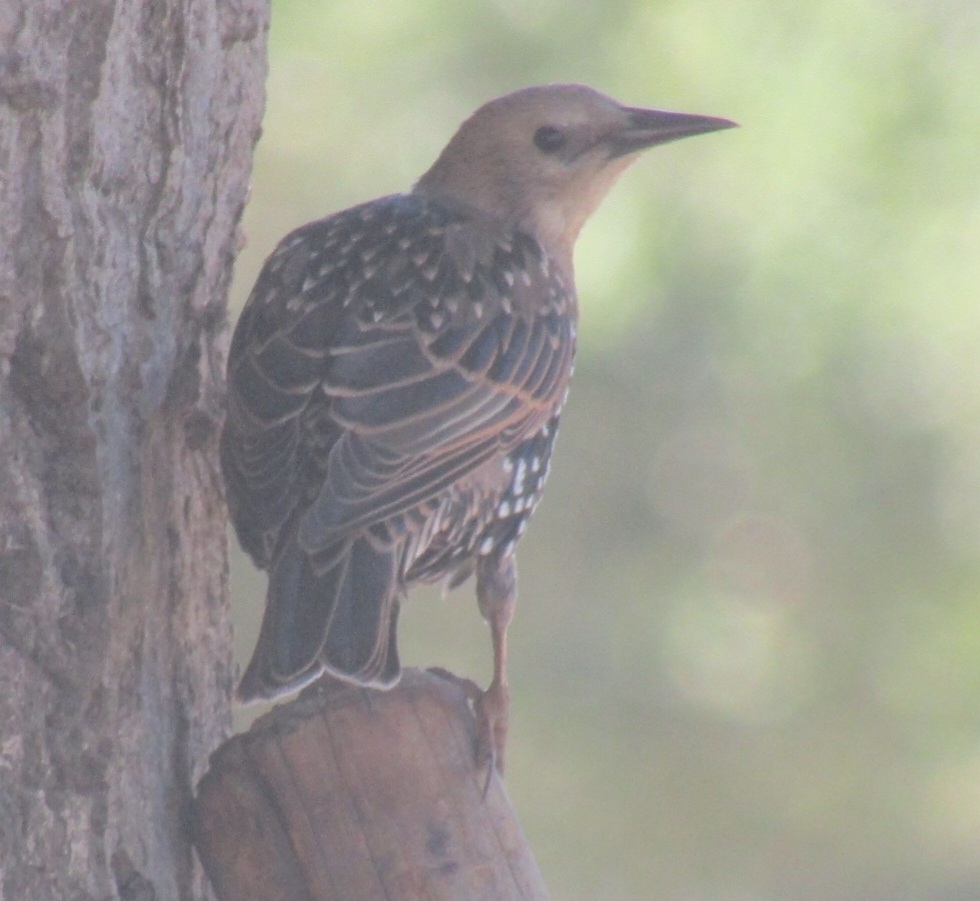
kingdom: Animalia
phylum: Chordata
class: Aves
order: Passeriformes
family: Sturnidae
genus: Sturnus
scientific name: Sturnus vulgaris
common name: Common starling
